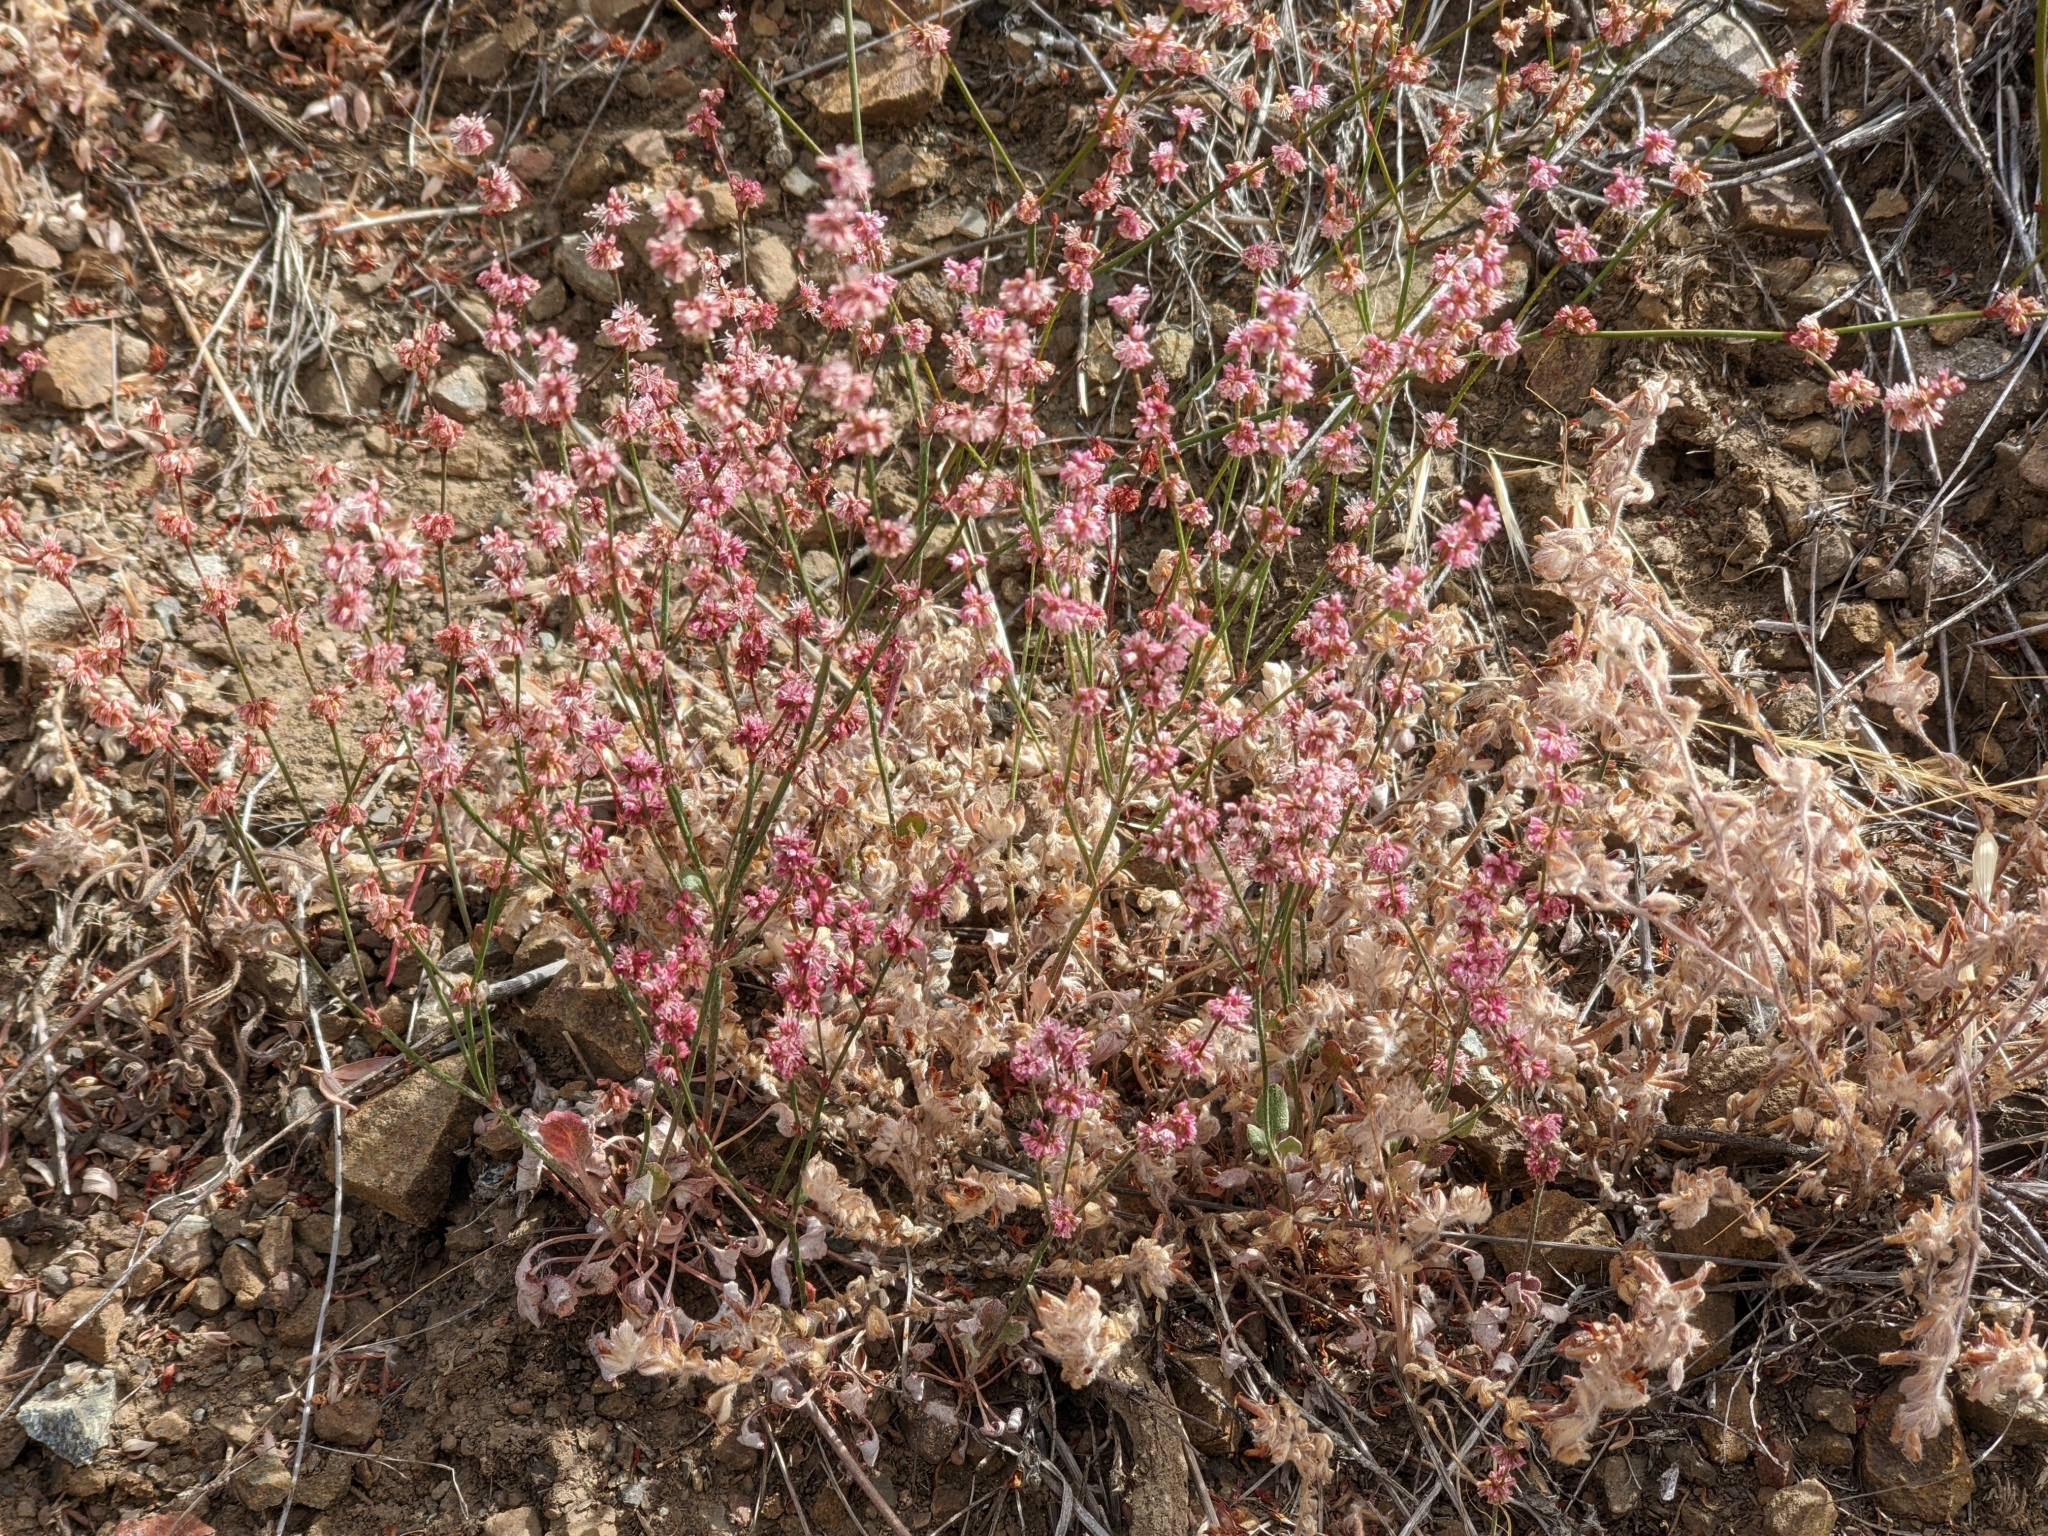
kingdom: Plantae
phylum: Tracheophyta
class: Magnoliopsida
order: Caryophyllales
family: Polygonaceae
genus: Eriogonum
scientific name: Eriogonum luteolum
